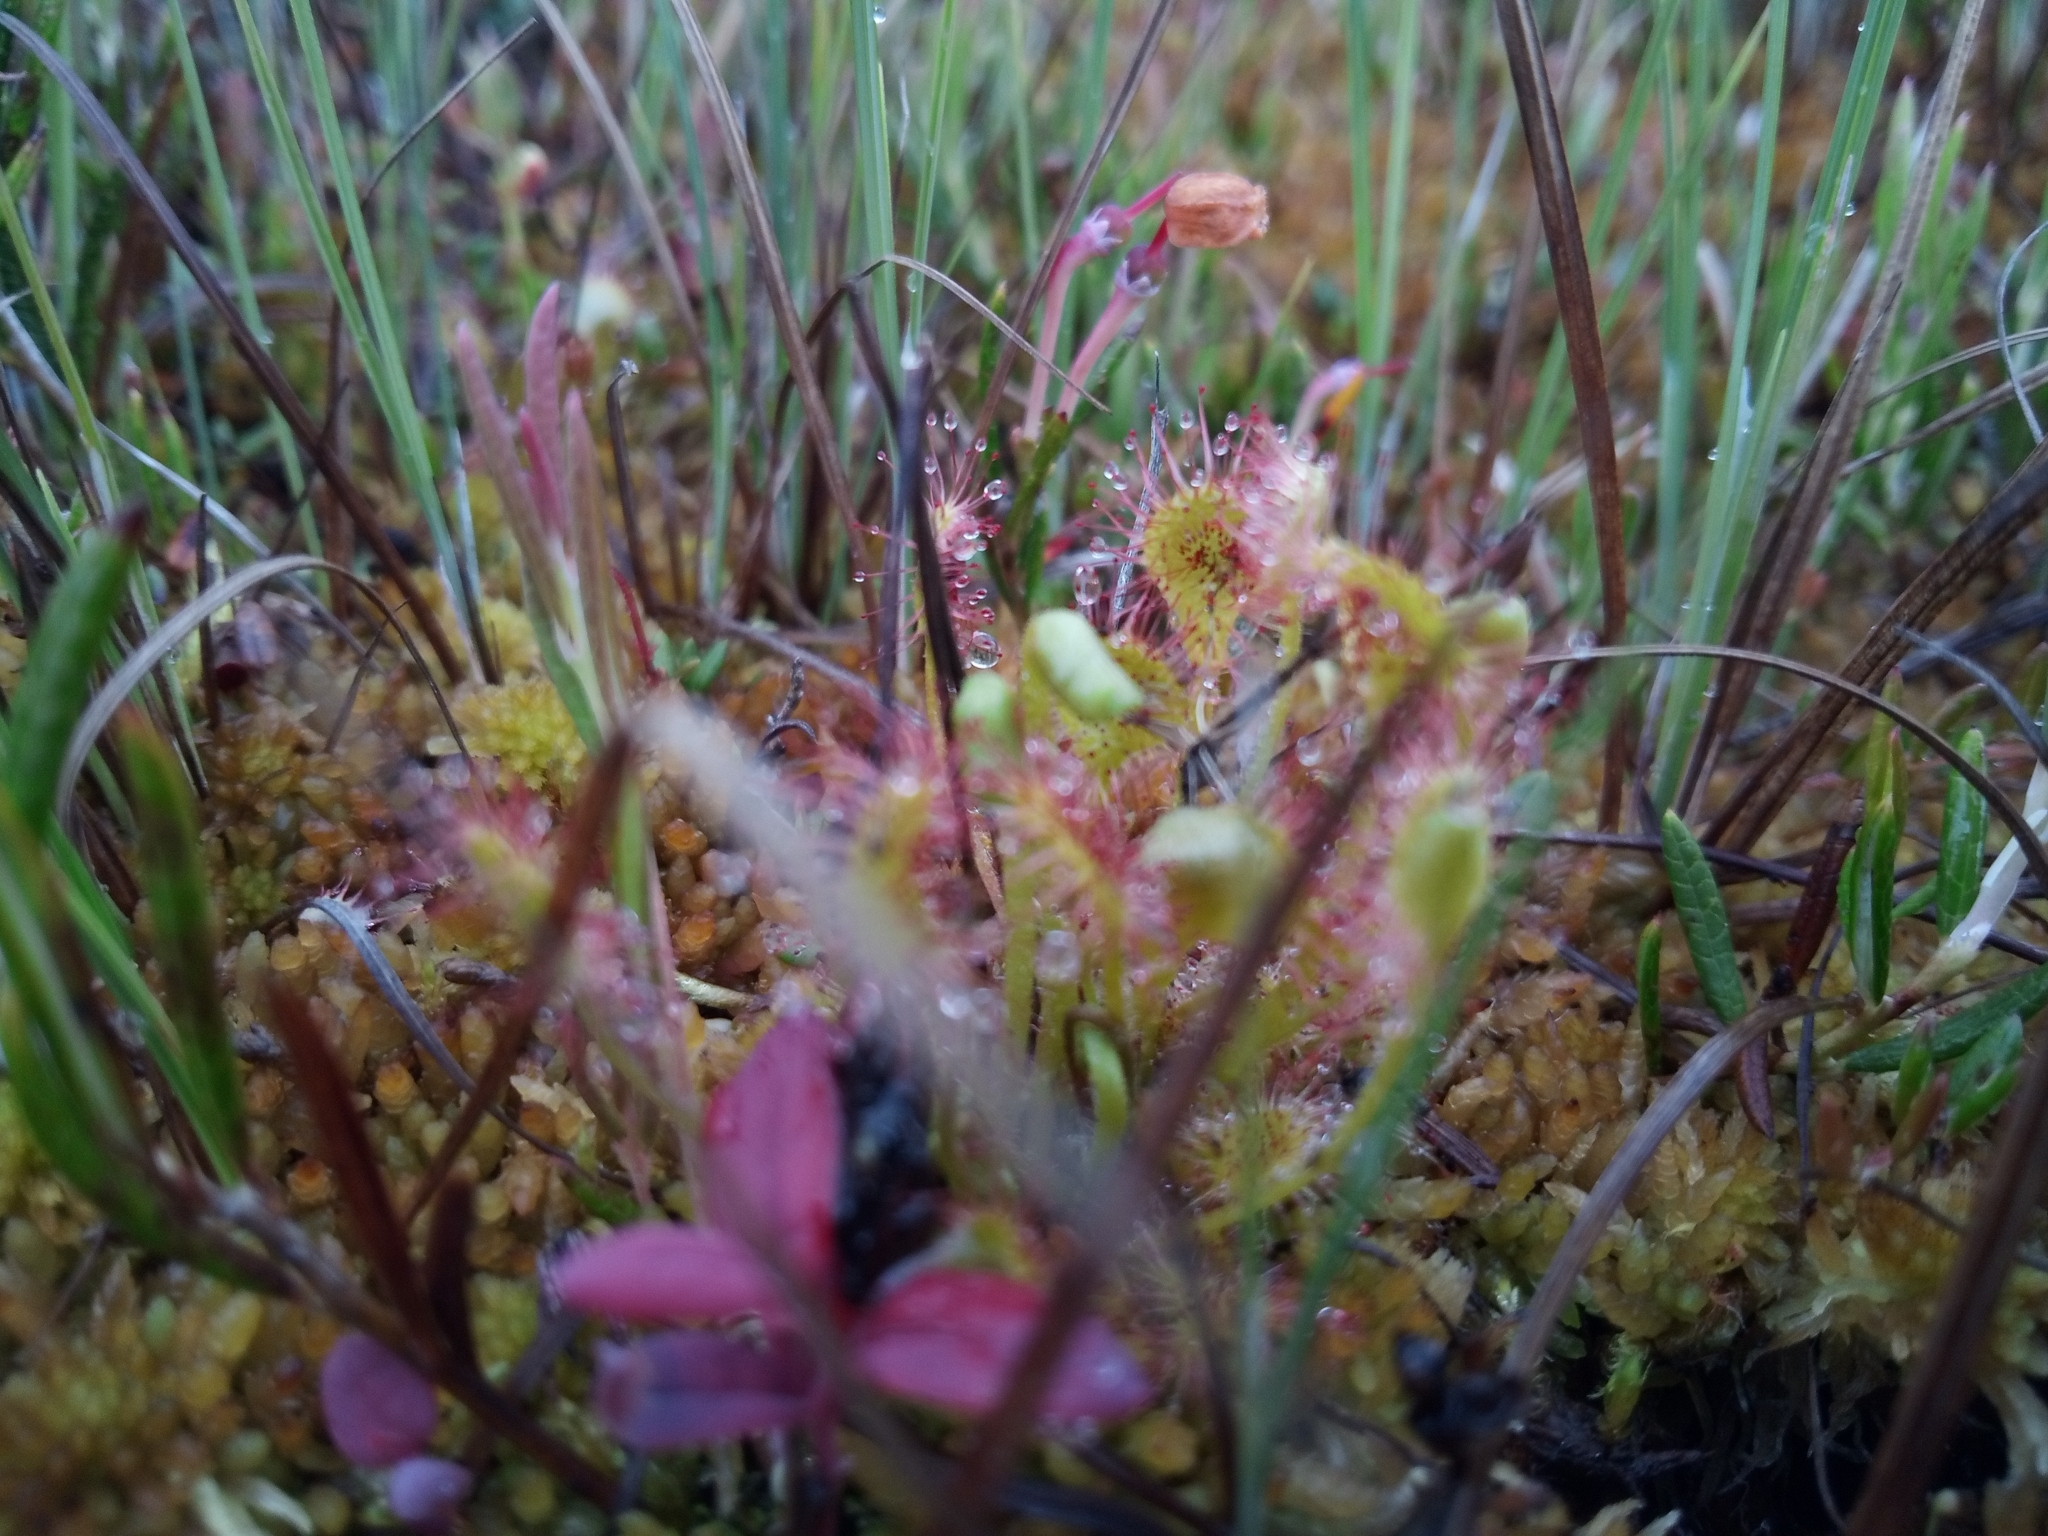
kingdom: Plantae
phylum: Tracheophyta
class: Magnoliopsida
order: Caryophyllales
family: Droseraceae
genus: Drosera
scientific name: Drosera rotundifolia
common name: Round-leaved sundew
